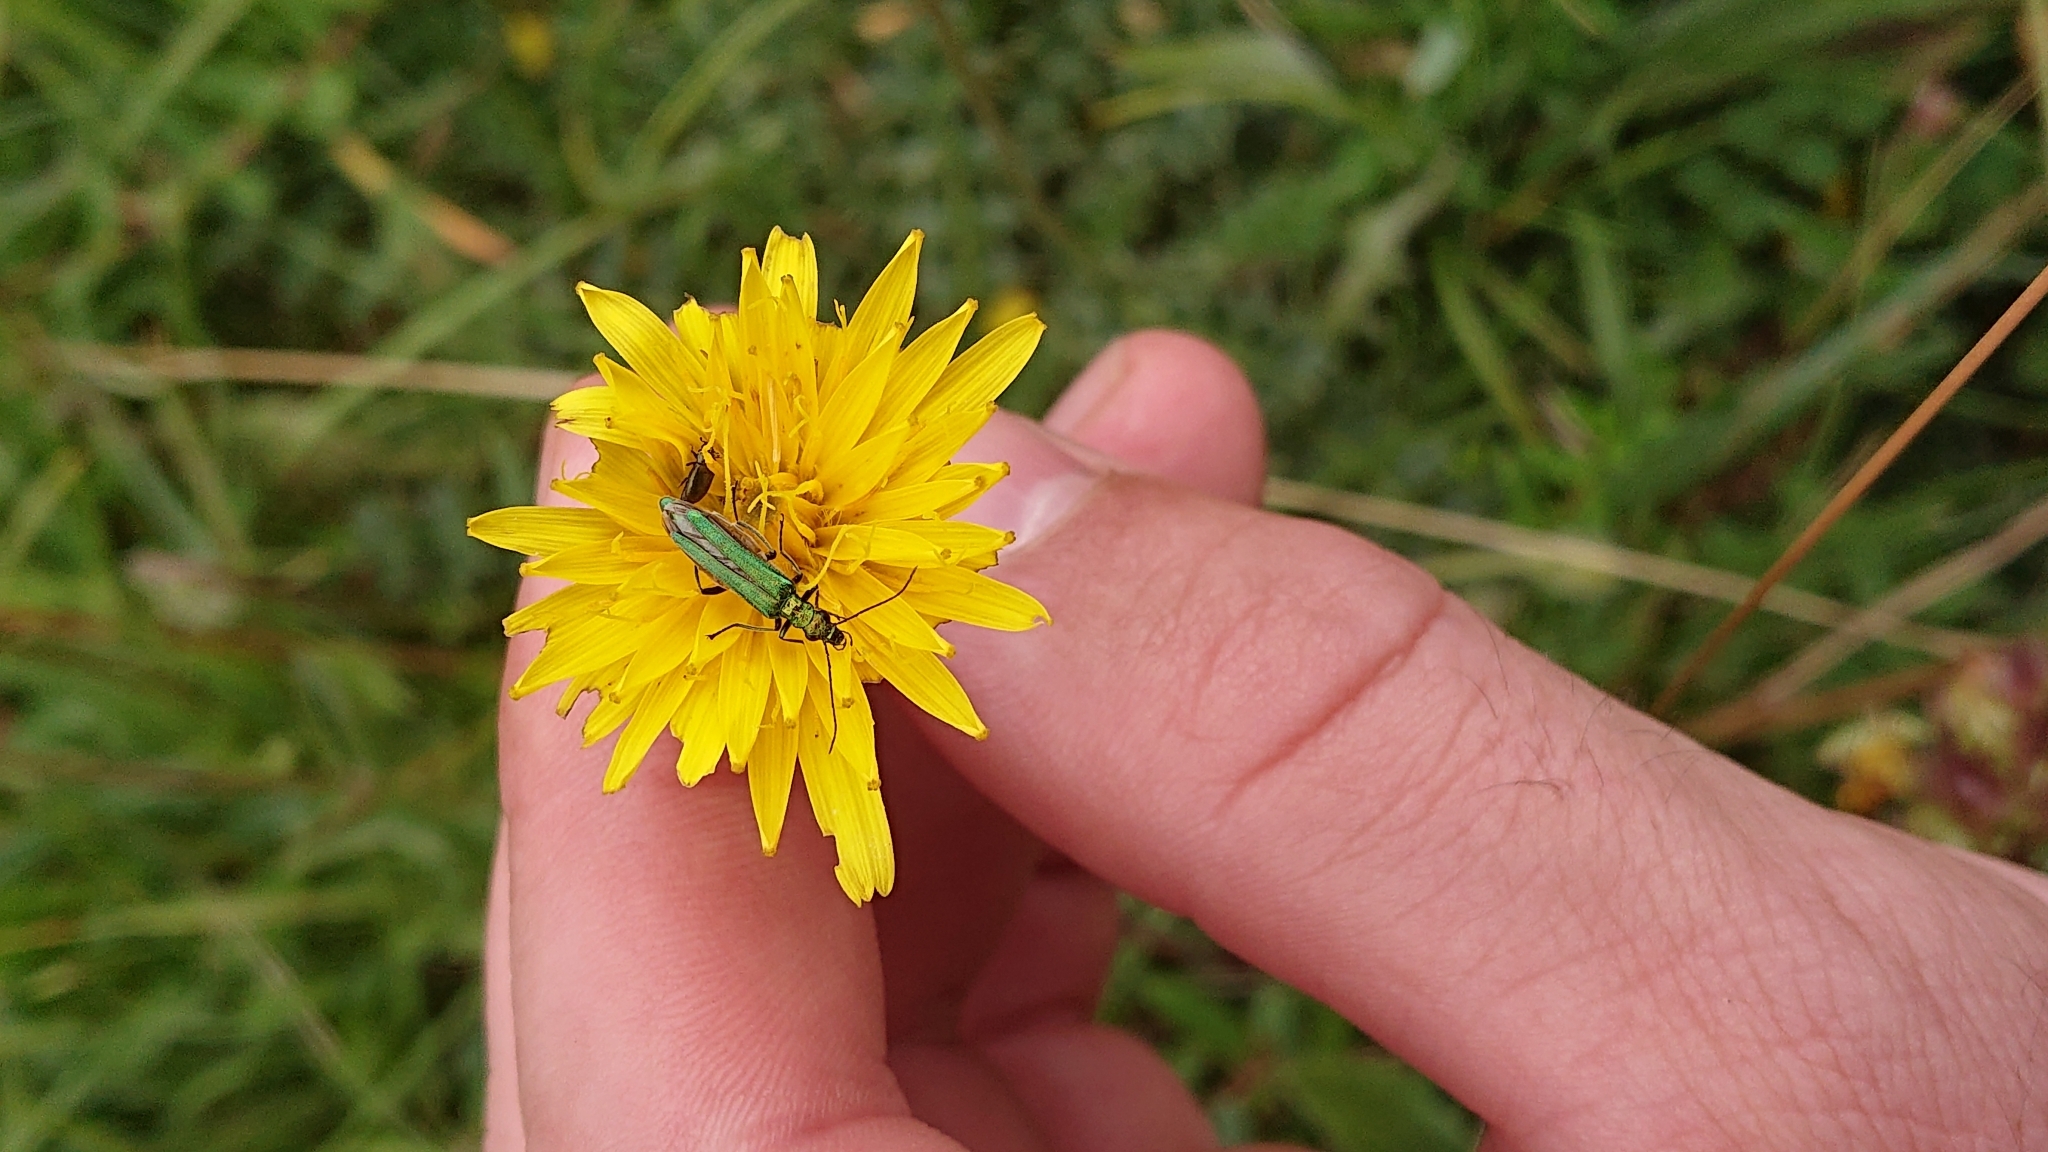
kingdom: Animalia
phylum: Arthropoda
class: Insecta
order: Coleoptera
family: Oedemeridae
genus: Oedemera
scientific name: Oedemera nobilis
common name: Swollen-thighed beetle
